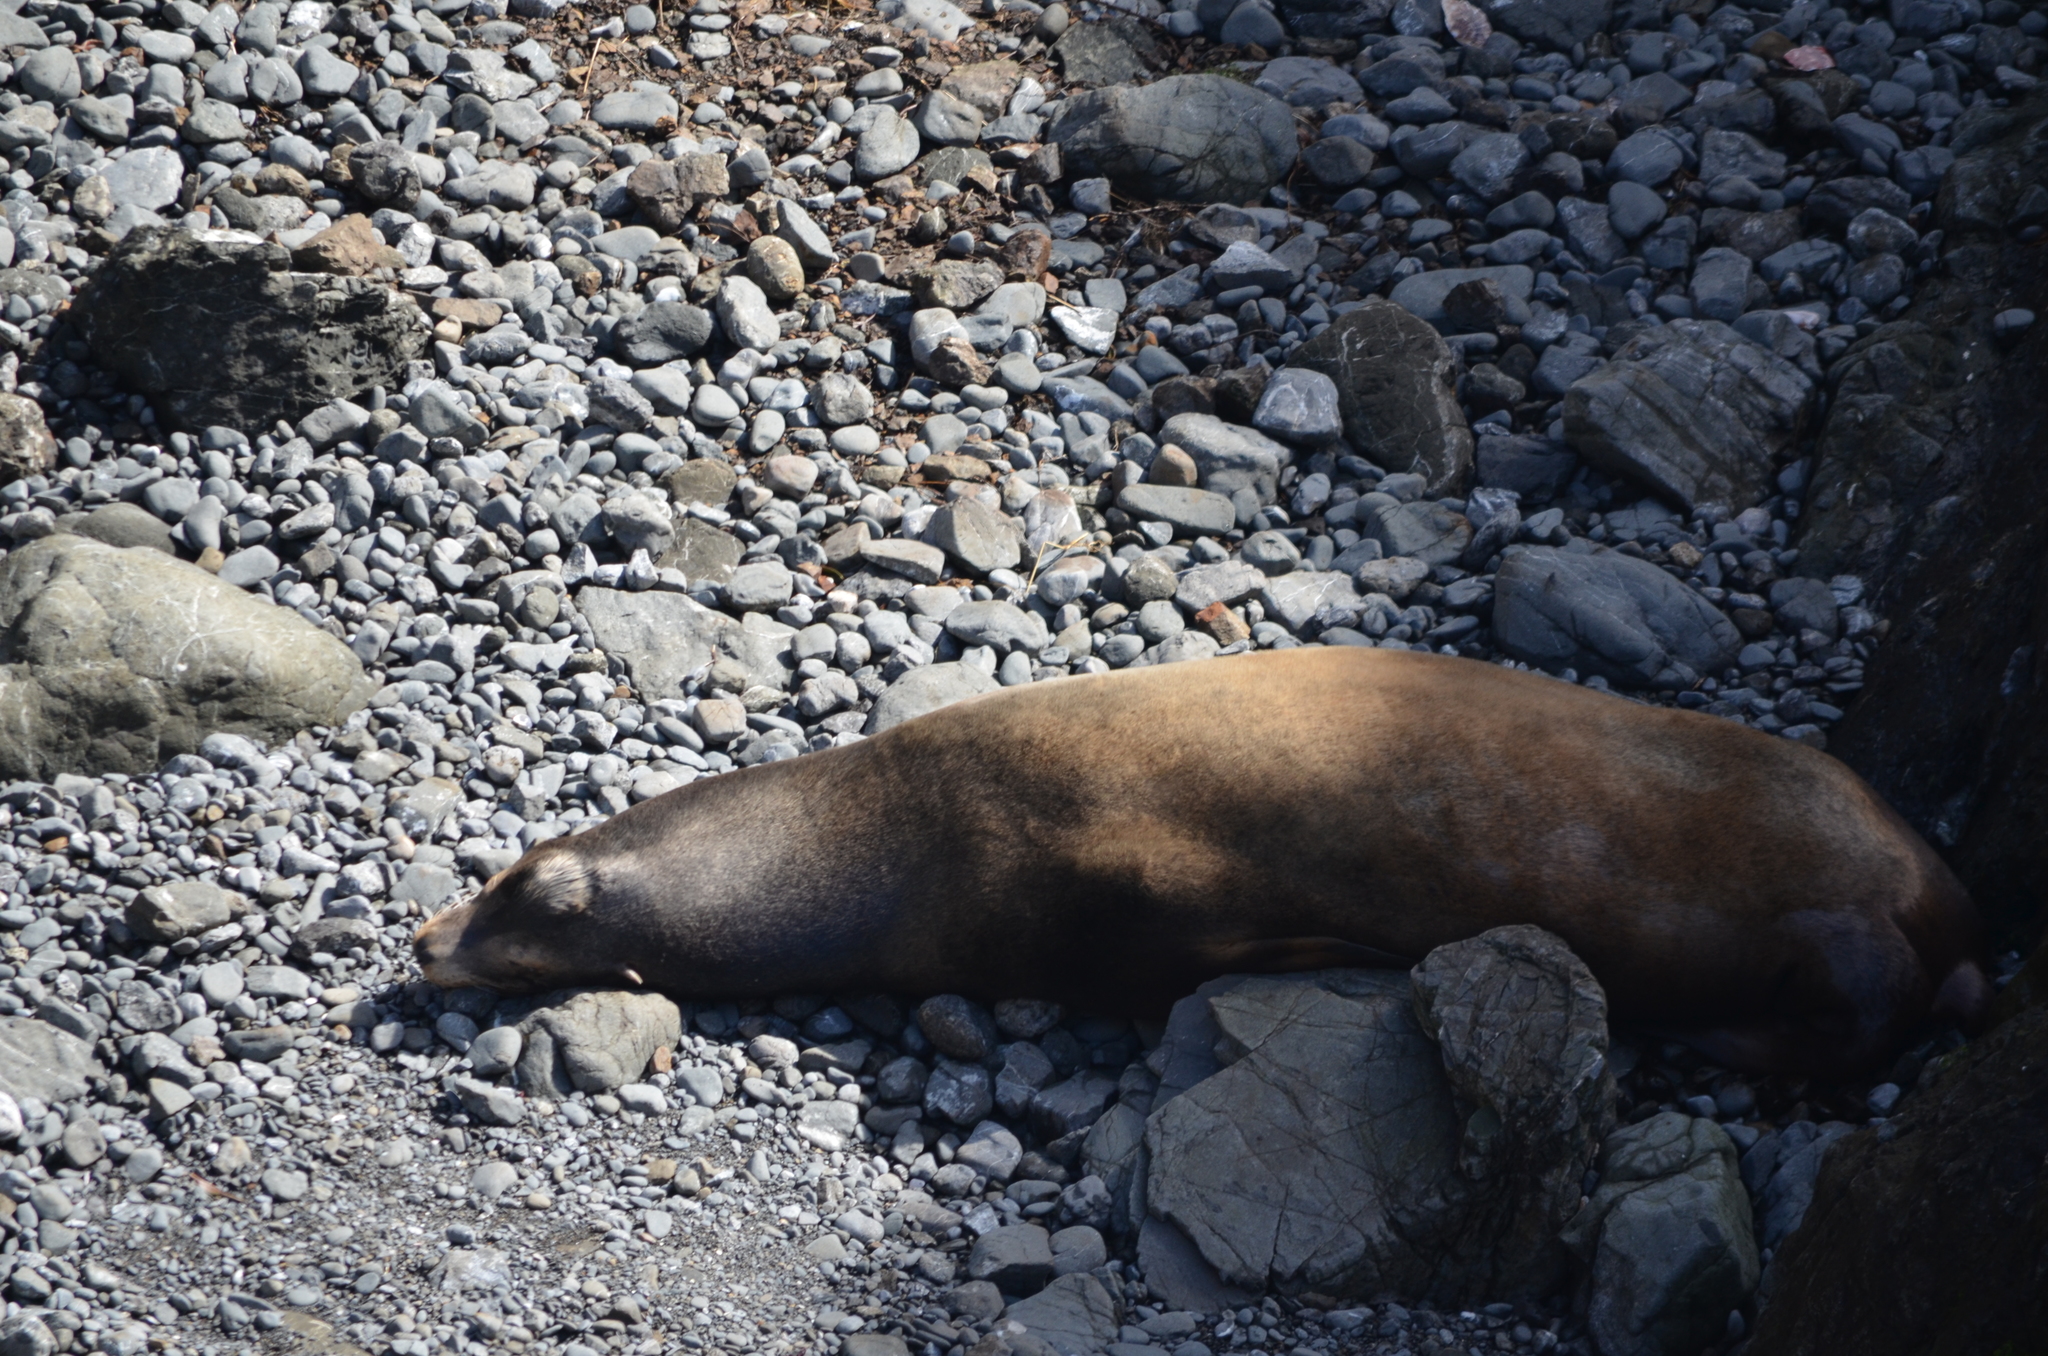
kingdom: Animalia
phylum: Chordata
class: Mammalia
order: Carnivora
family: Otariidae
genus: Zalophus
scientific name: Zalophus californianus
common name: California sea lion
